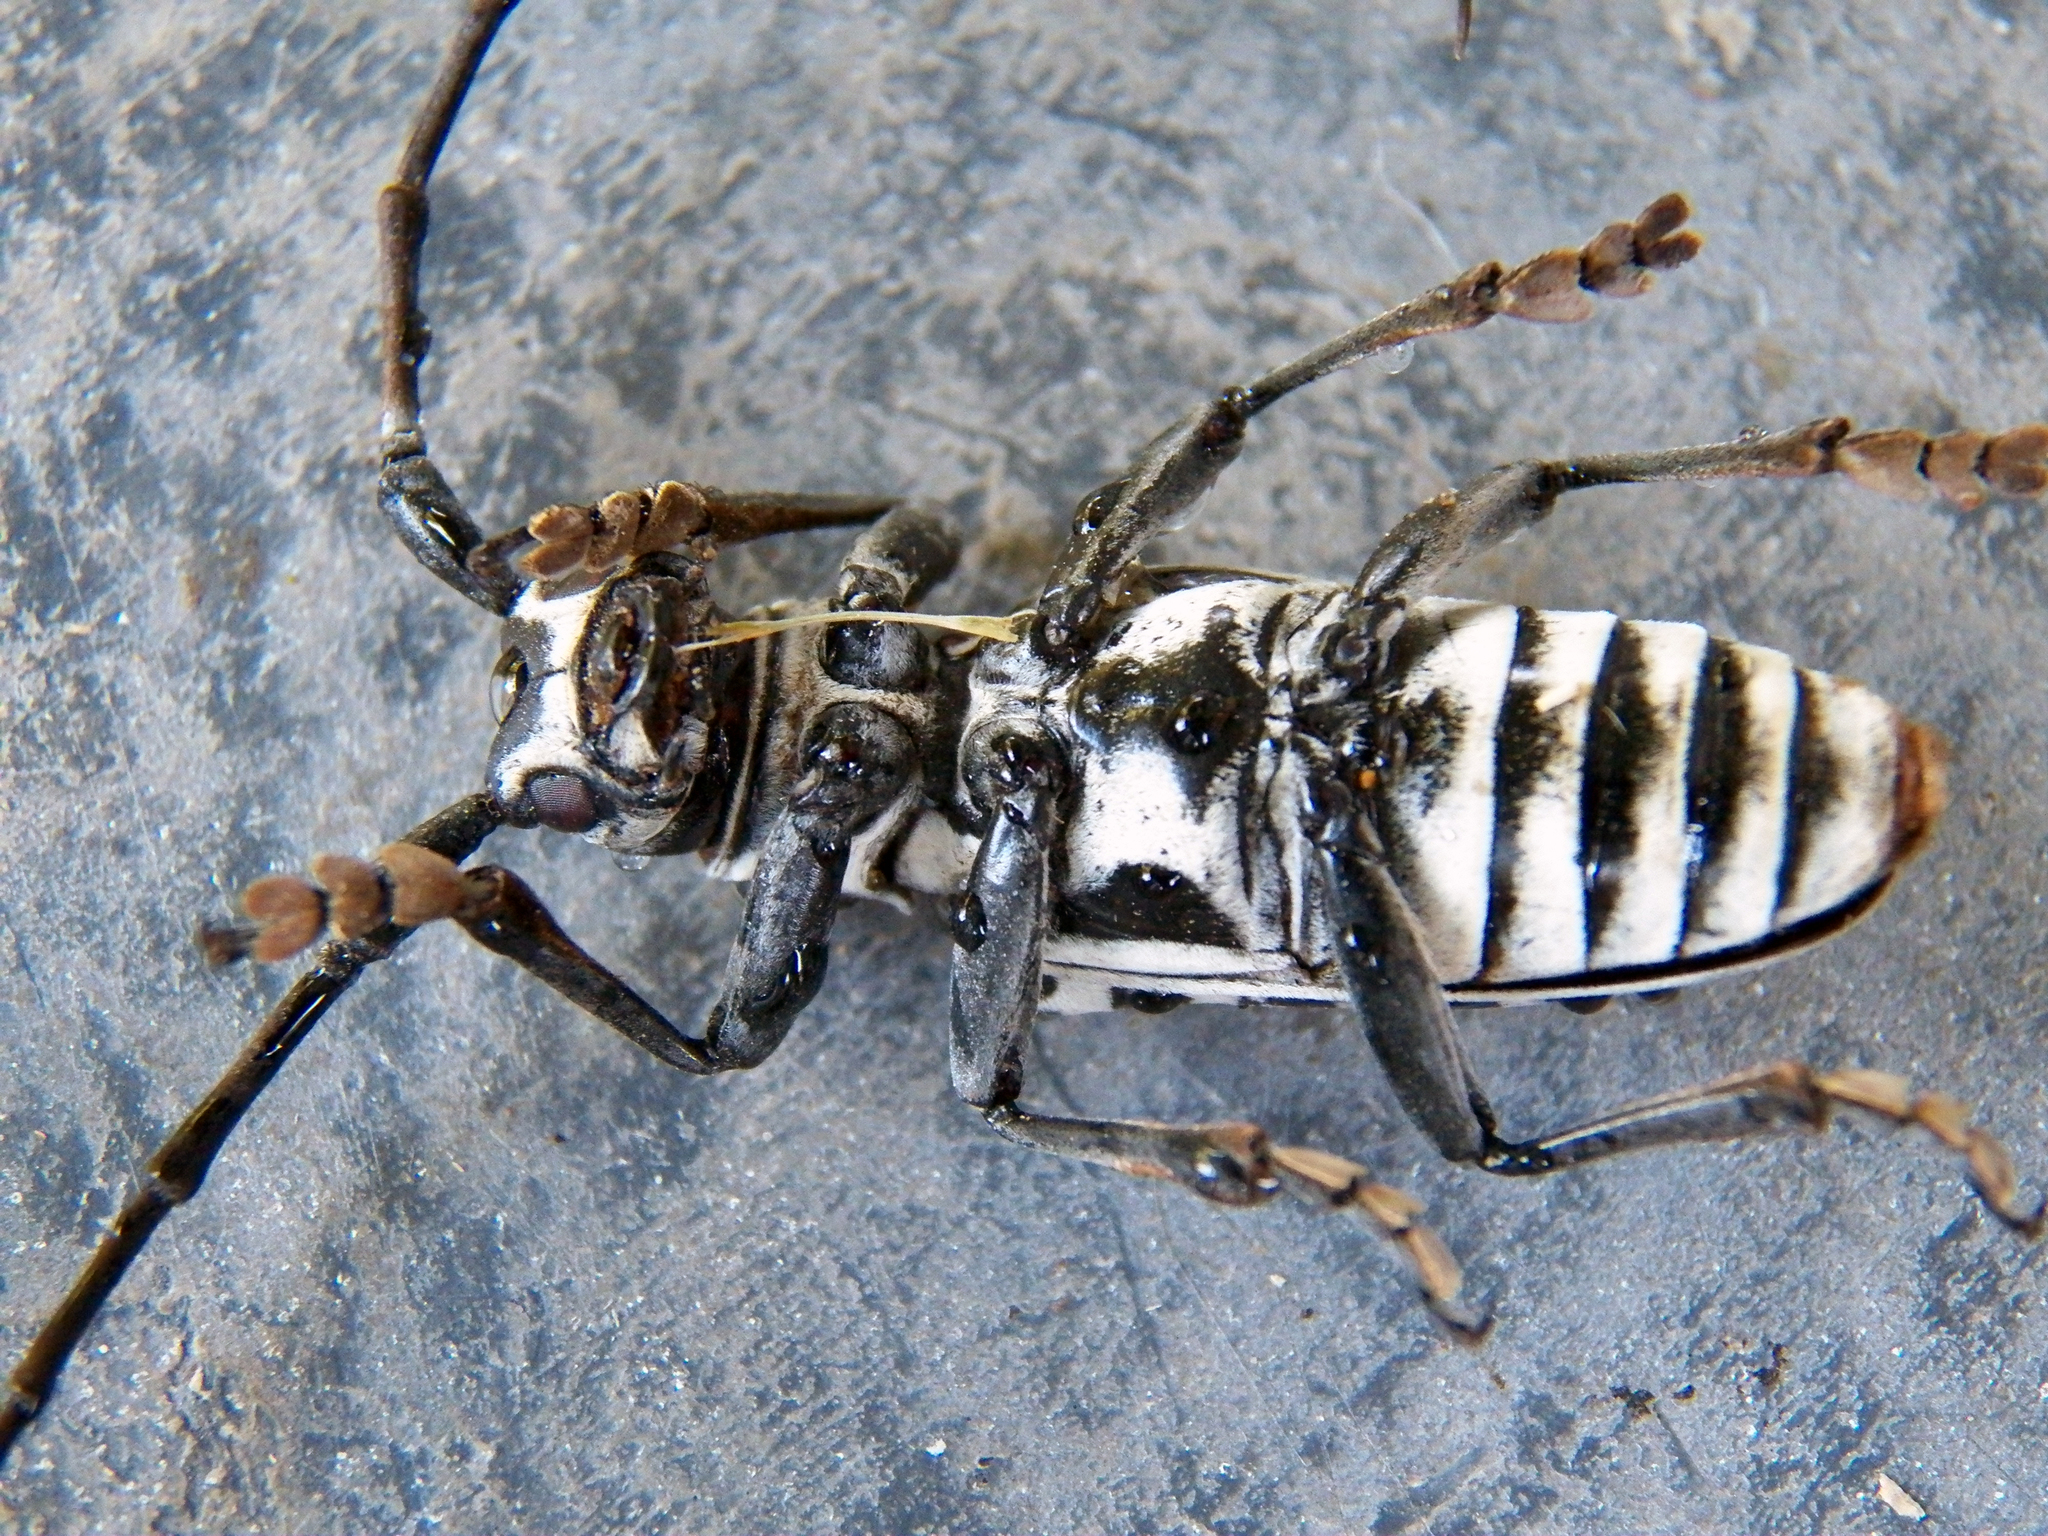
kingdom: Animalia
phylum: Arthropoda
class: Insecta
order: Coleoptera
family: Cerambycidae
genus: Plectrodera
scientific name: Plectrodera scalator
